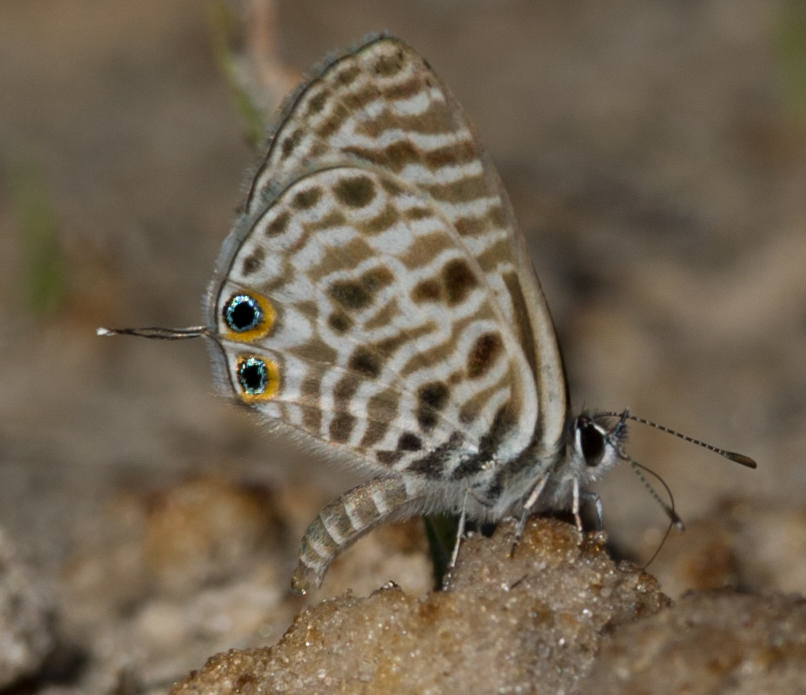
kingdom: Animalia
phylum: Arthropoda
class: Insecta
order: Lepidoptera
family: Lycaenidae
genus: Leptotes
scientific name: Leptotes
